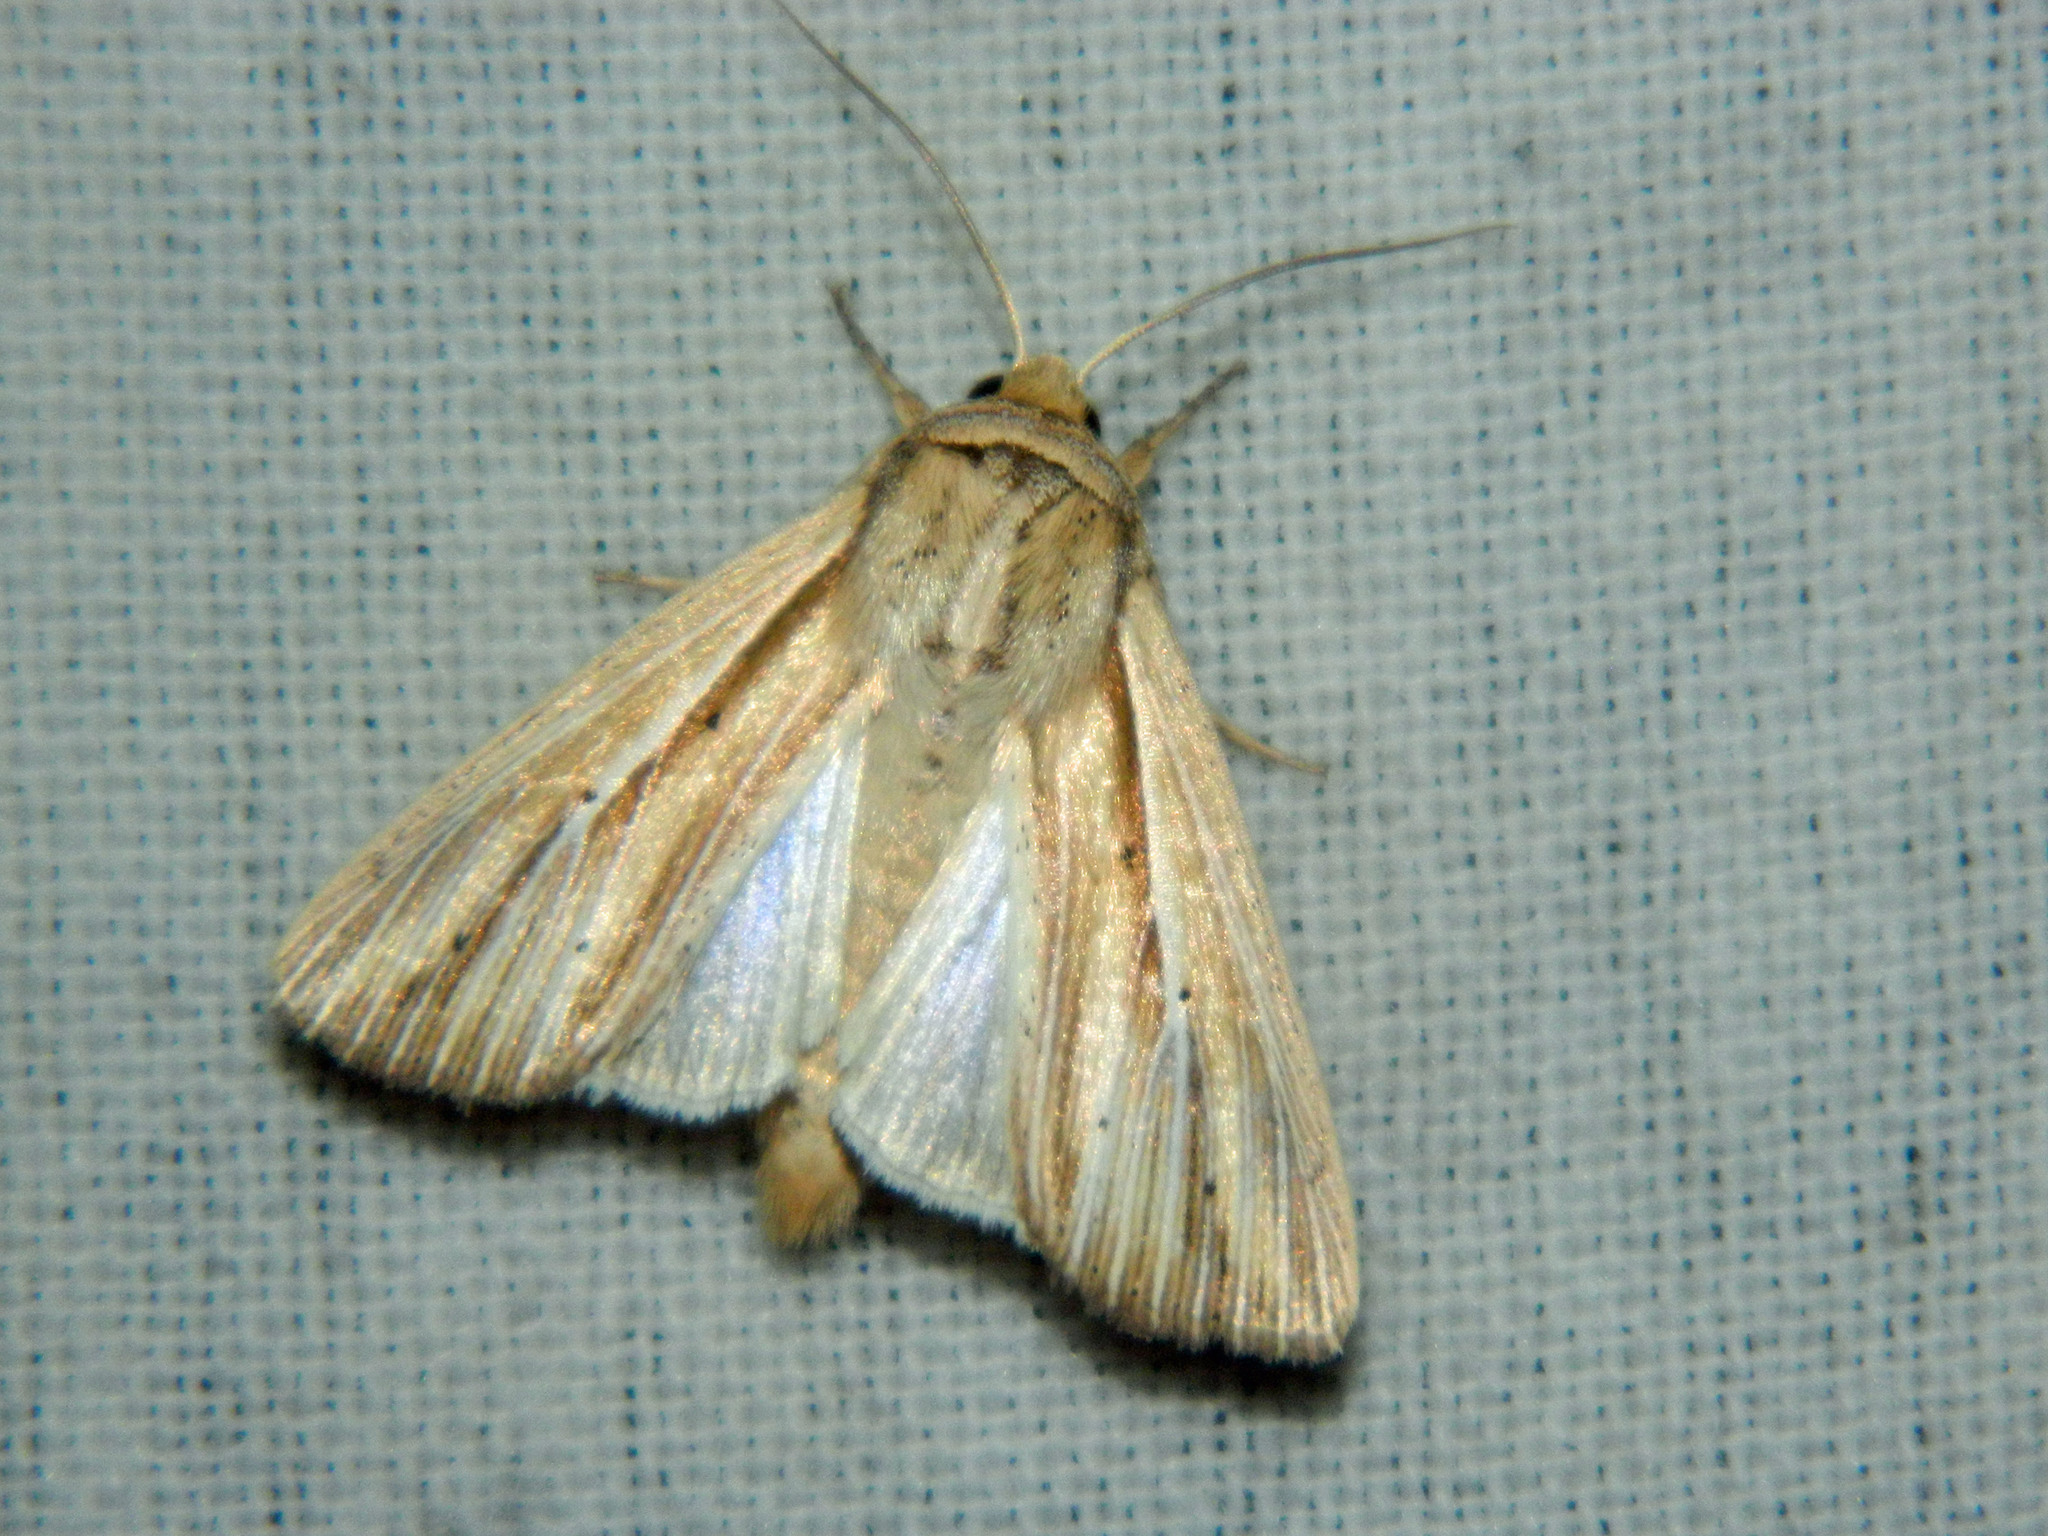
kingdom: Animalia
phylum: Arthropoda
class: Insecta
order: Lepidoptera
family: Noctuidae
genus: Leucania
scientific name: Leucania multilinea
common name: Many-lined wainscot
